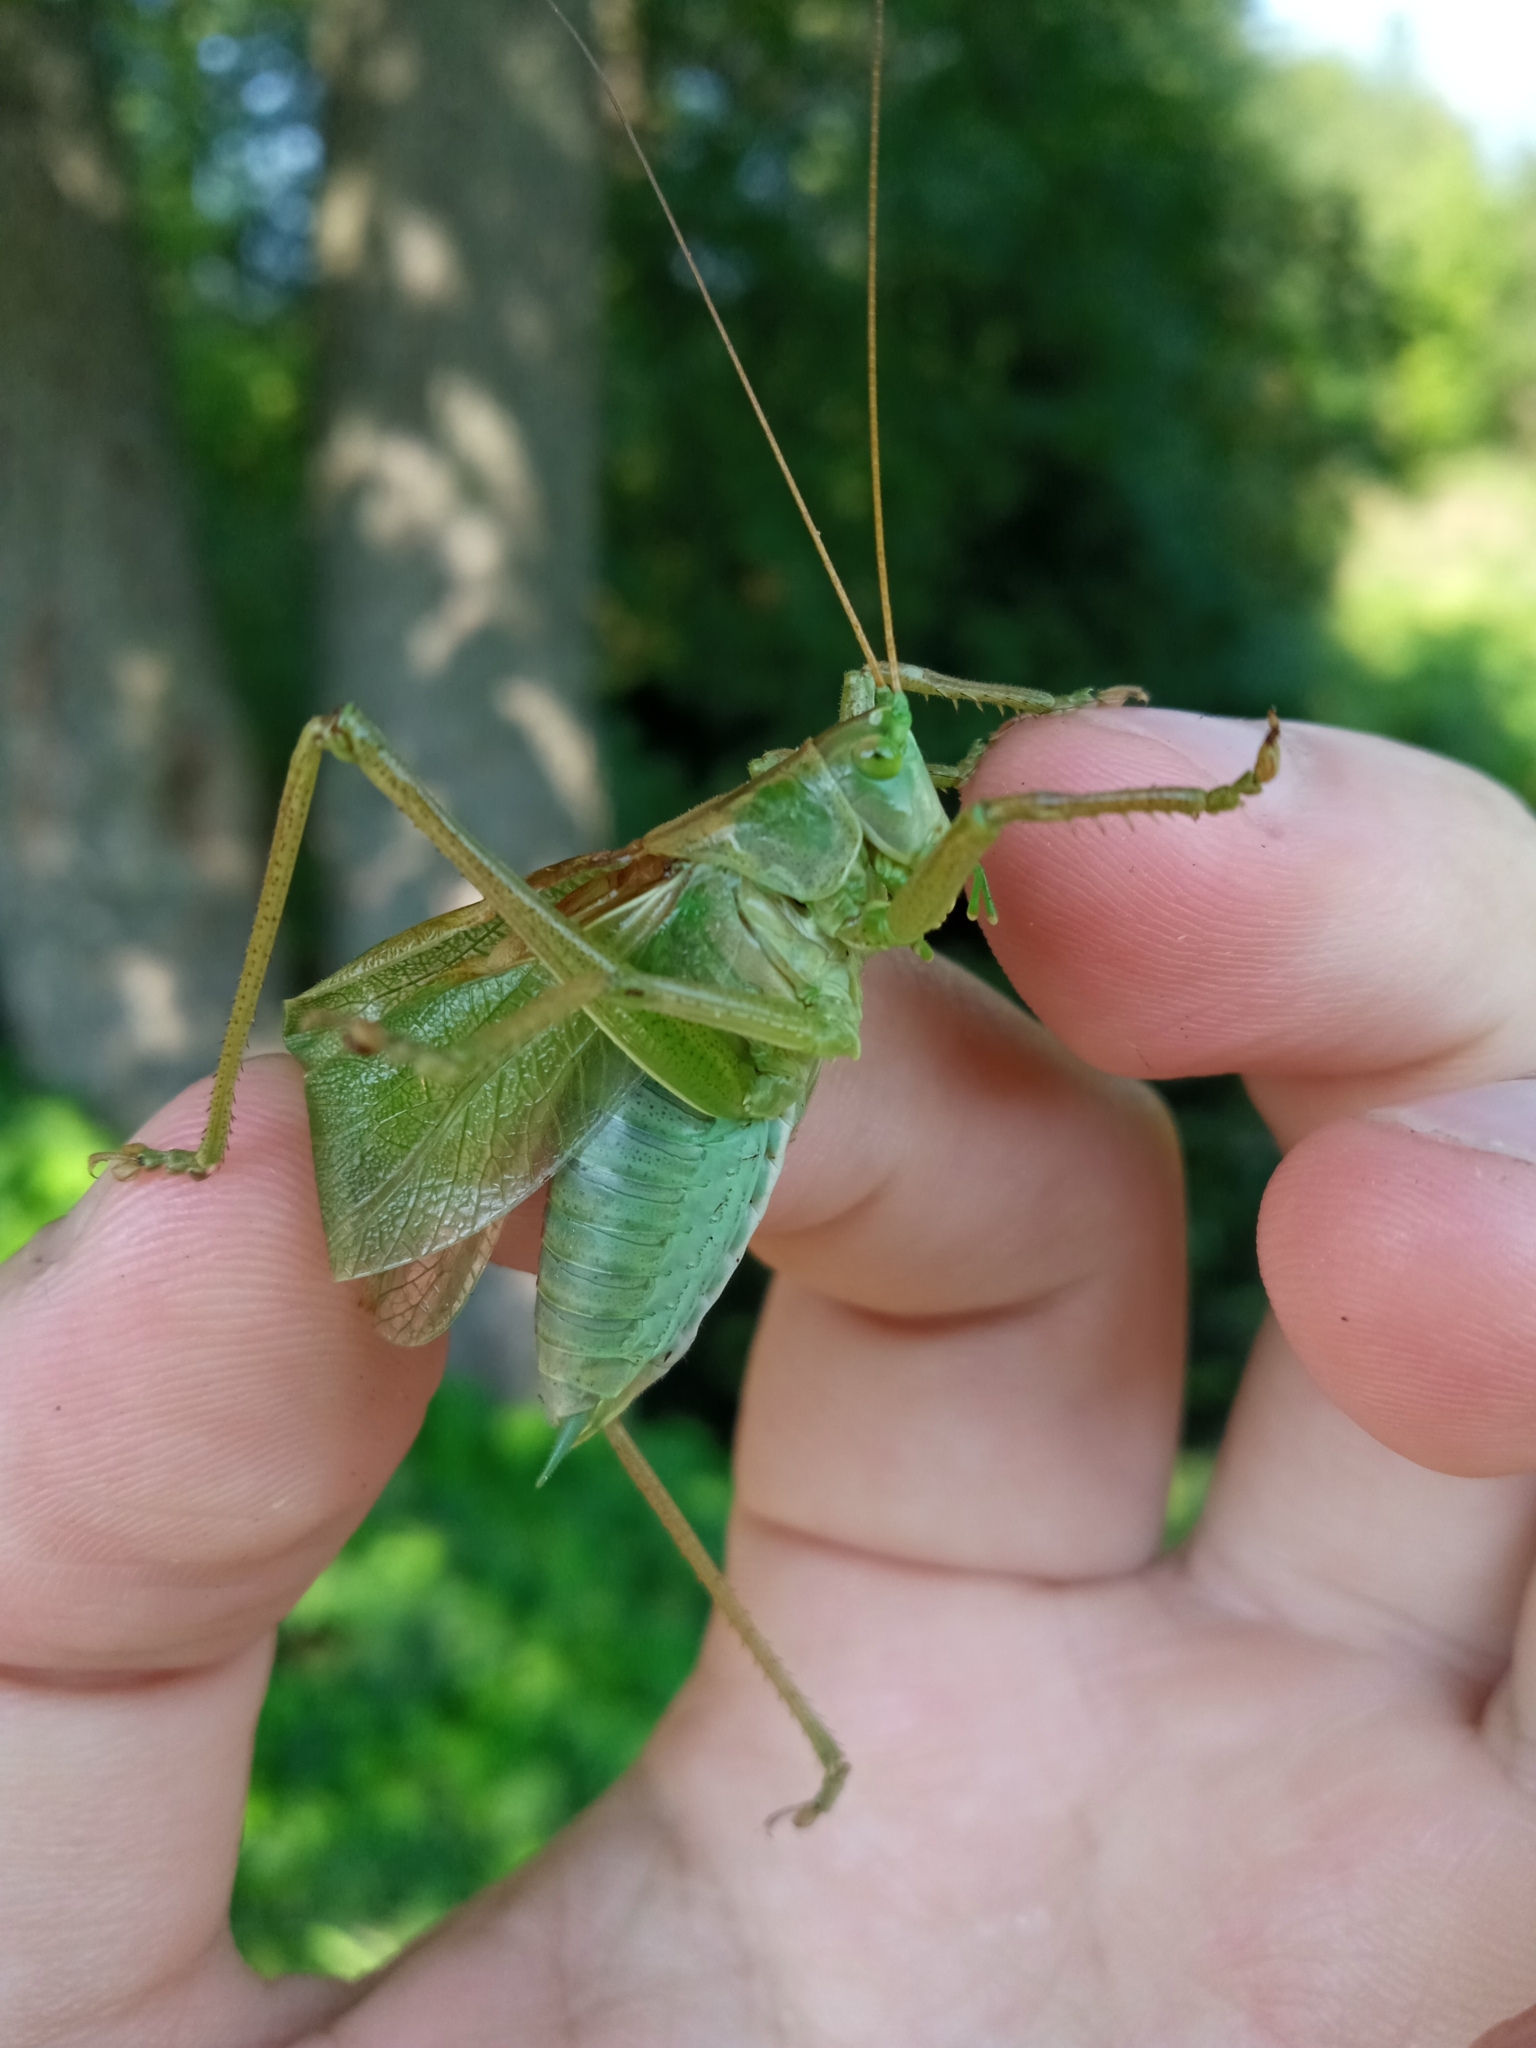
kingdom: Animalia
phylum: Arthropoda
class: Insecta
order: Orthoptera
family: Tettigoniidae
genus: Tettigonia
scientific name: Tettigonia cantans
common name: Upland green bush-cricket
